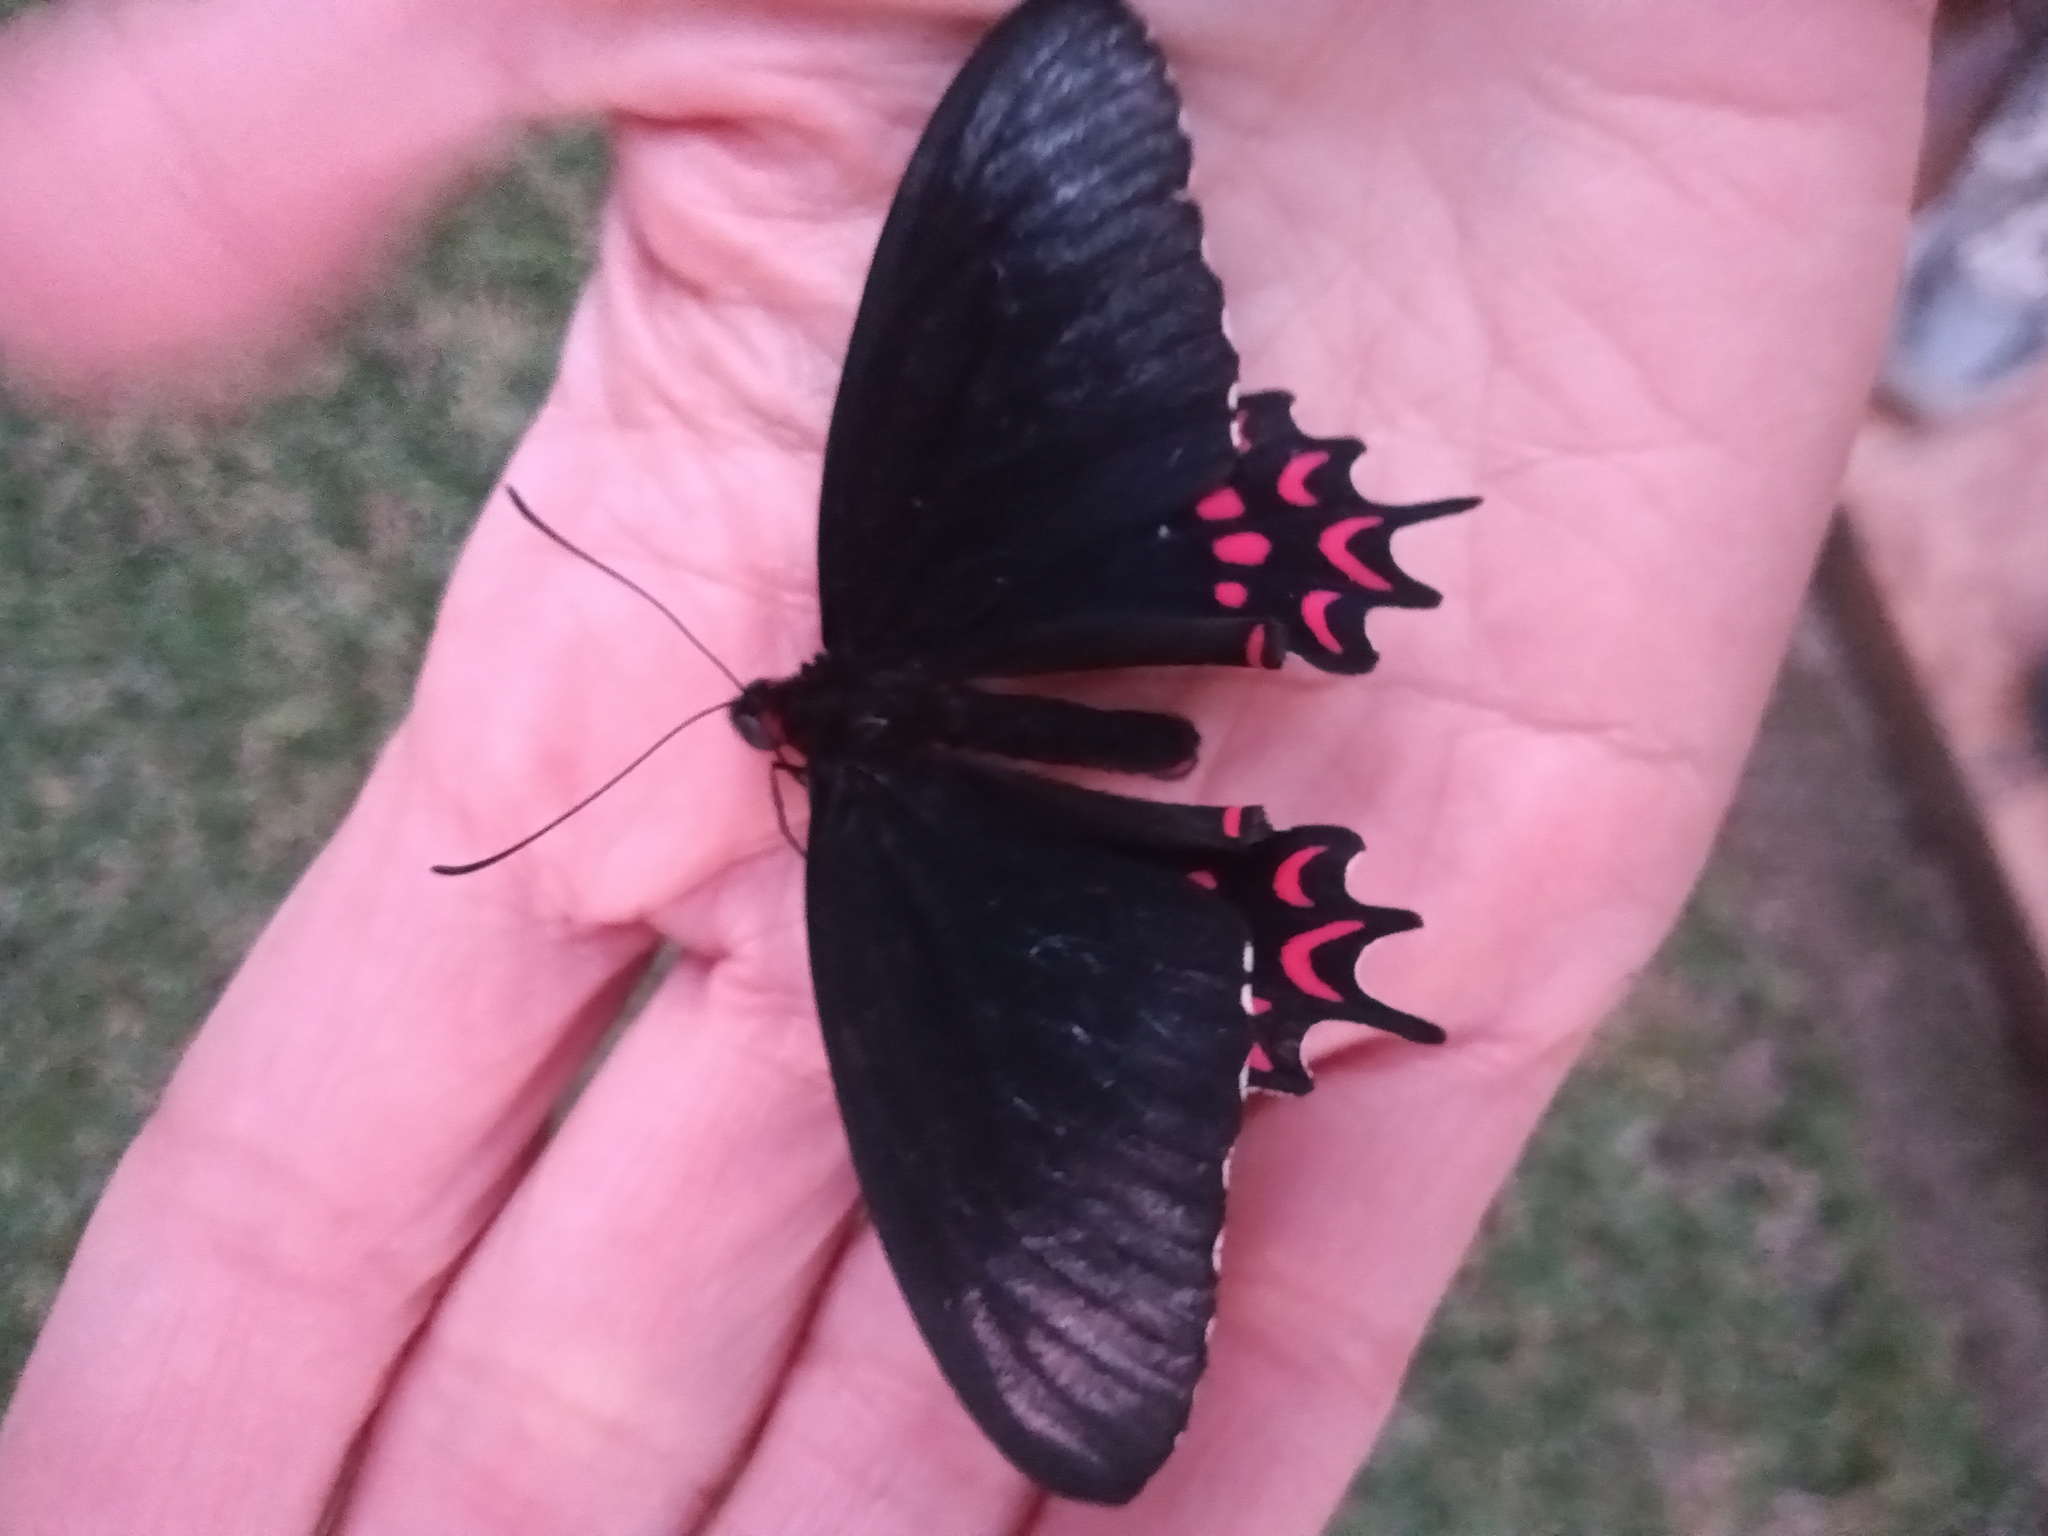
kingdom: Animalia
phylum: Arthropoda
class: Insecta
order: Lepidoptera
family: Papilionidae
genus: Parides
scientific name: Parides photinus
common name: Pink-spotted cattleheart
